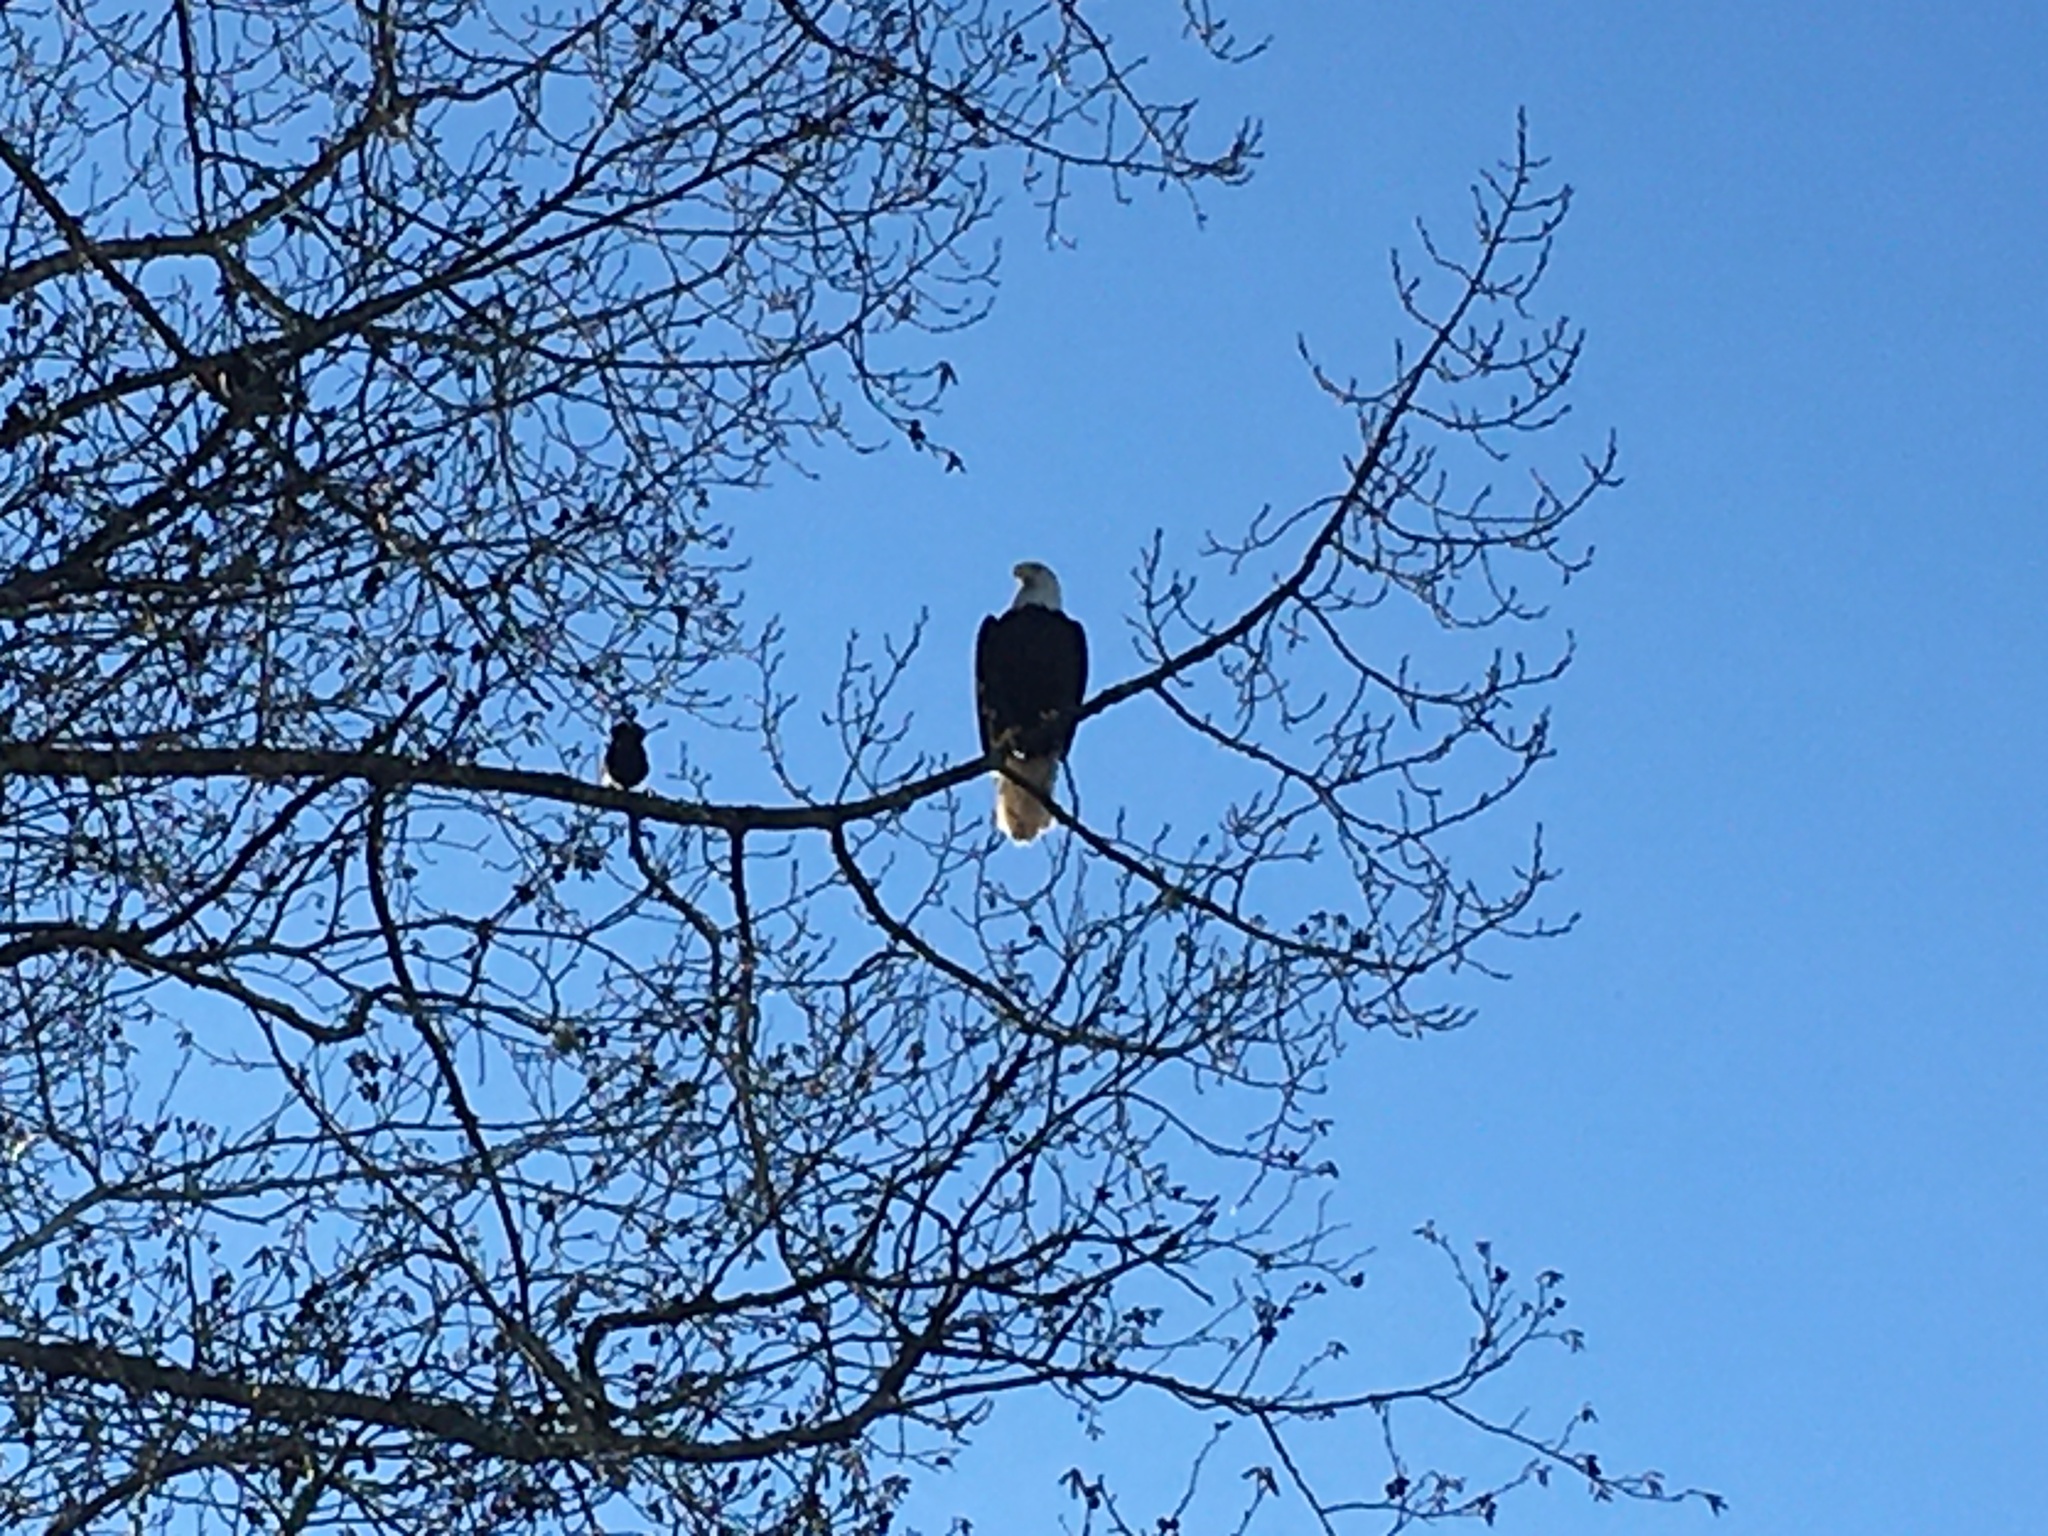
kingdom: Animalia
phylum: Chordata
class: Aves
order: Accipitriformes
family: Accipitridae
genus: Haliaeetus
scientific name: Haliaeetus leucocephalus
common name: Bald eagle
